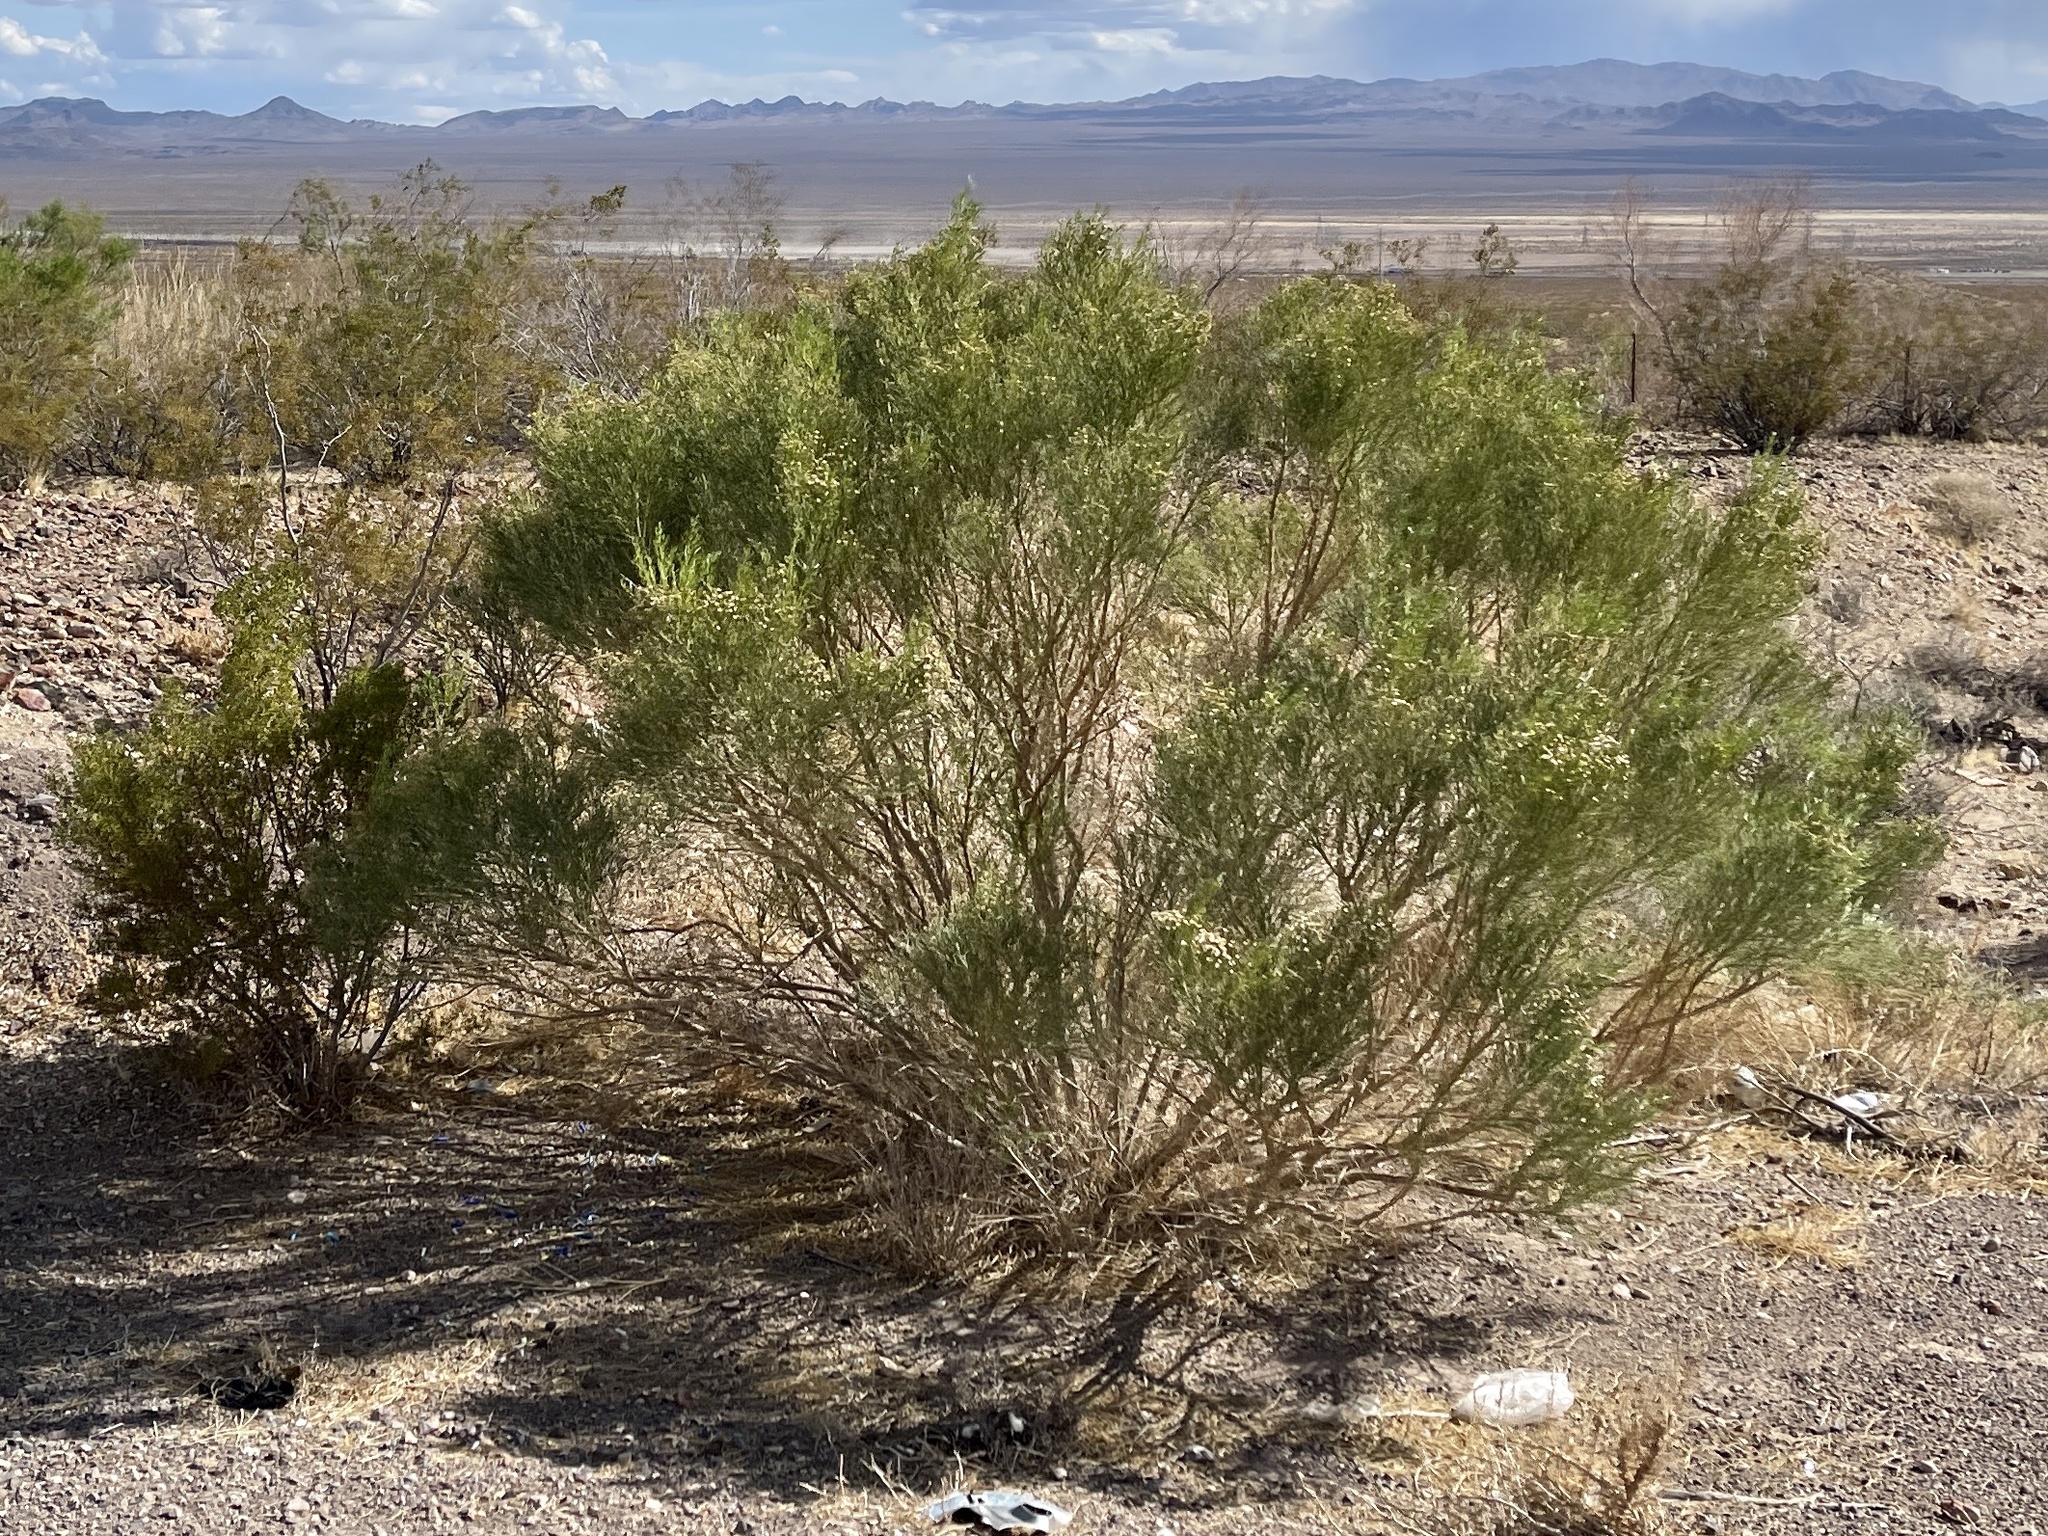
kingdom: Plantae
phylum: Tracheophyta
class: Magnoliopsida
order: Asterales
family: Asteraceae
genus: Baccharis
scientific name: Baccharis sarothroides
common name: Desert-broom
